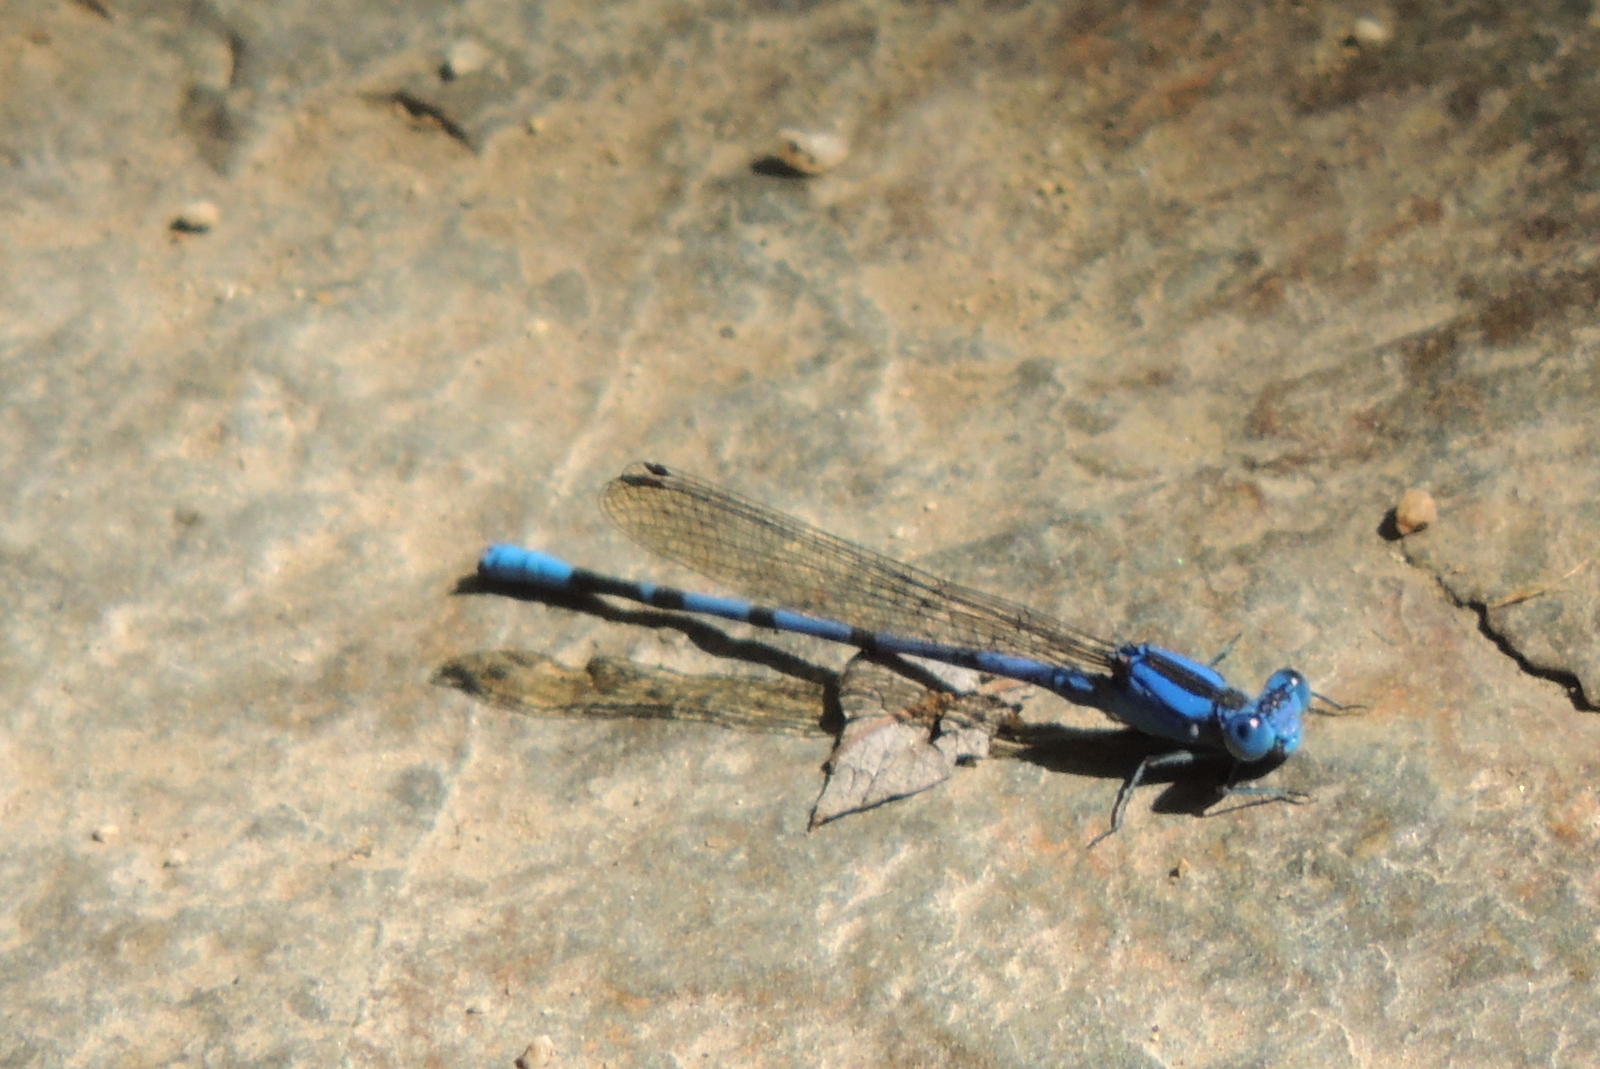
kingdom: Animalia
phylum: Arthropoda
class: Insecta
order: Odonata
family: Coenagrionidae
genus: Argia
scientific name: Argia vivida
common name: Vivid dancer
